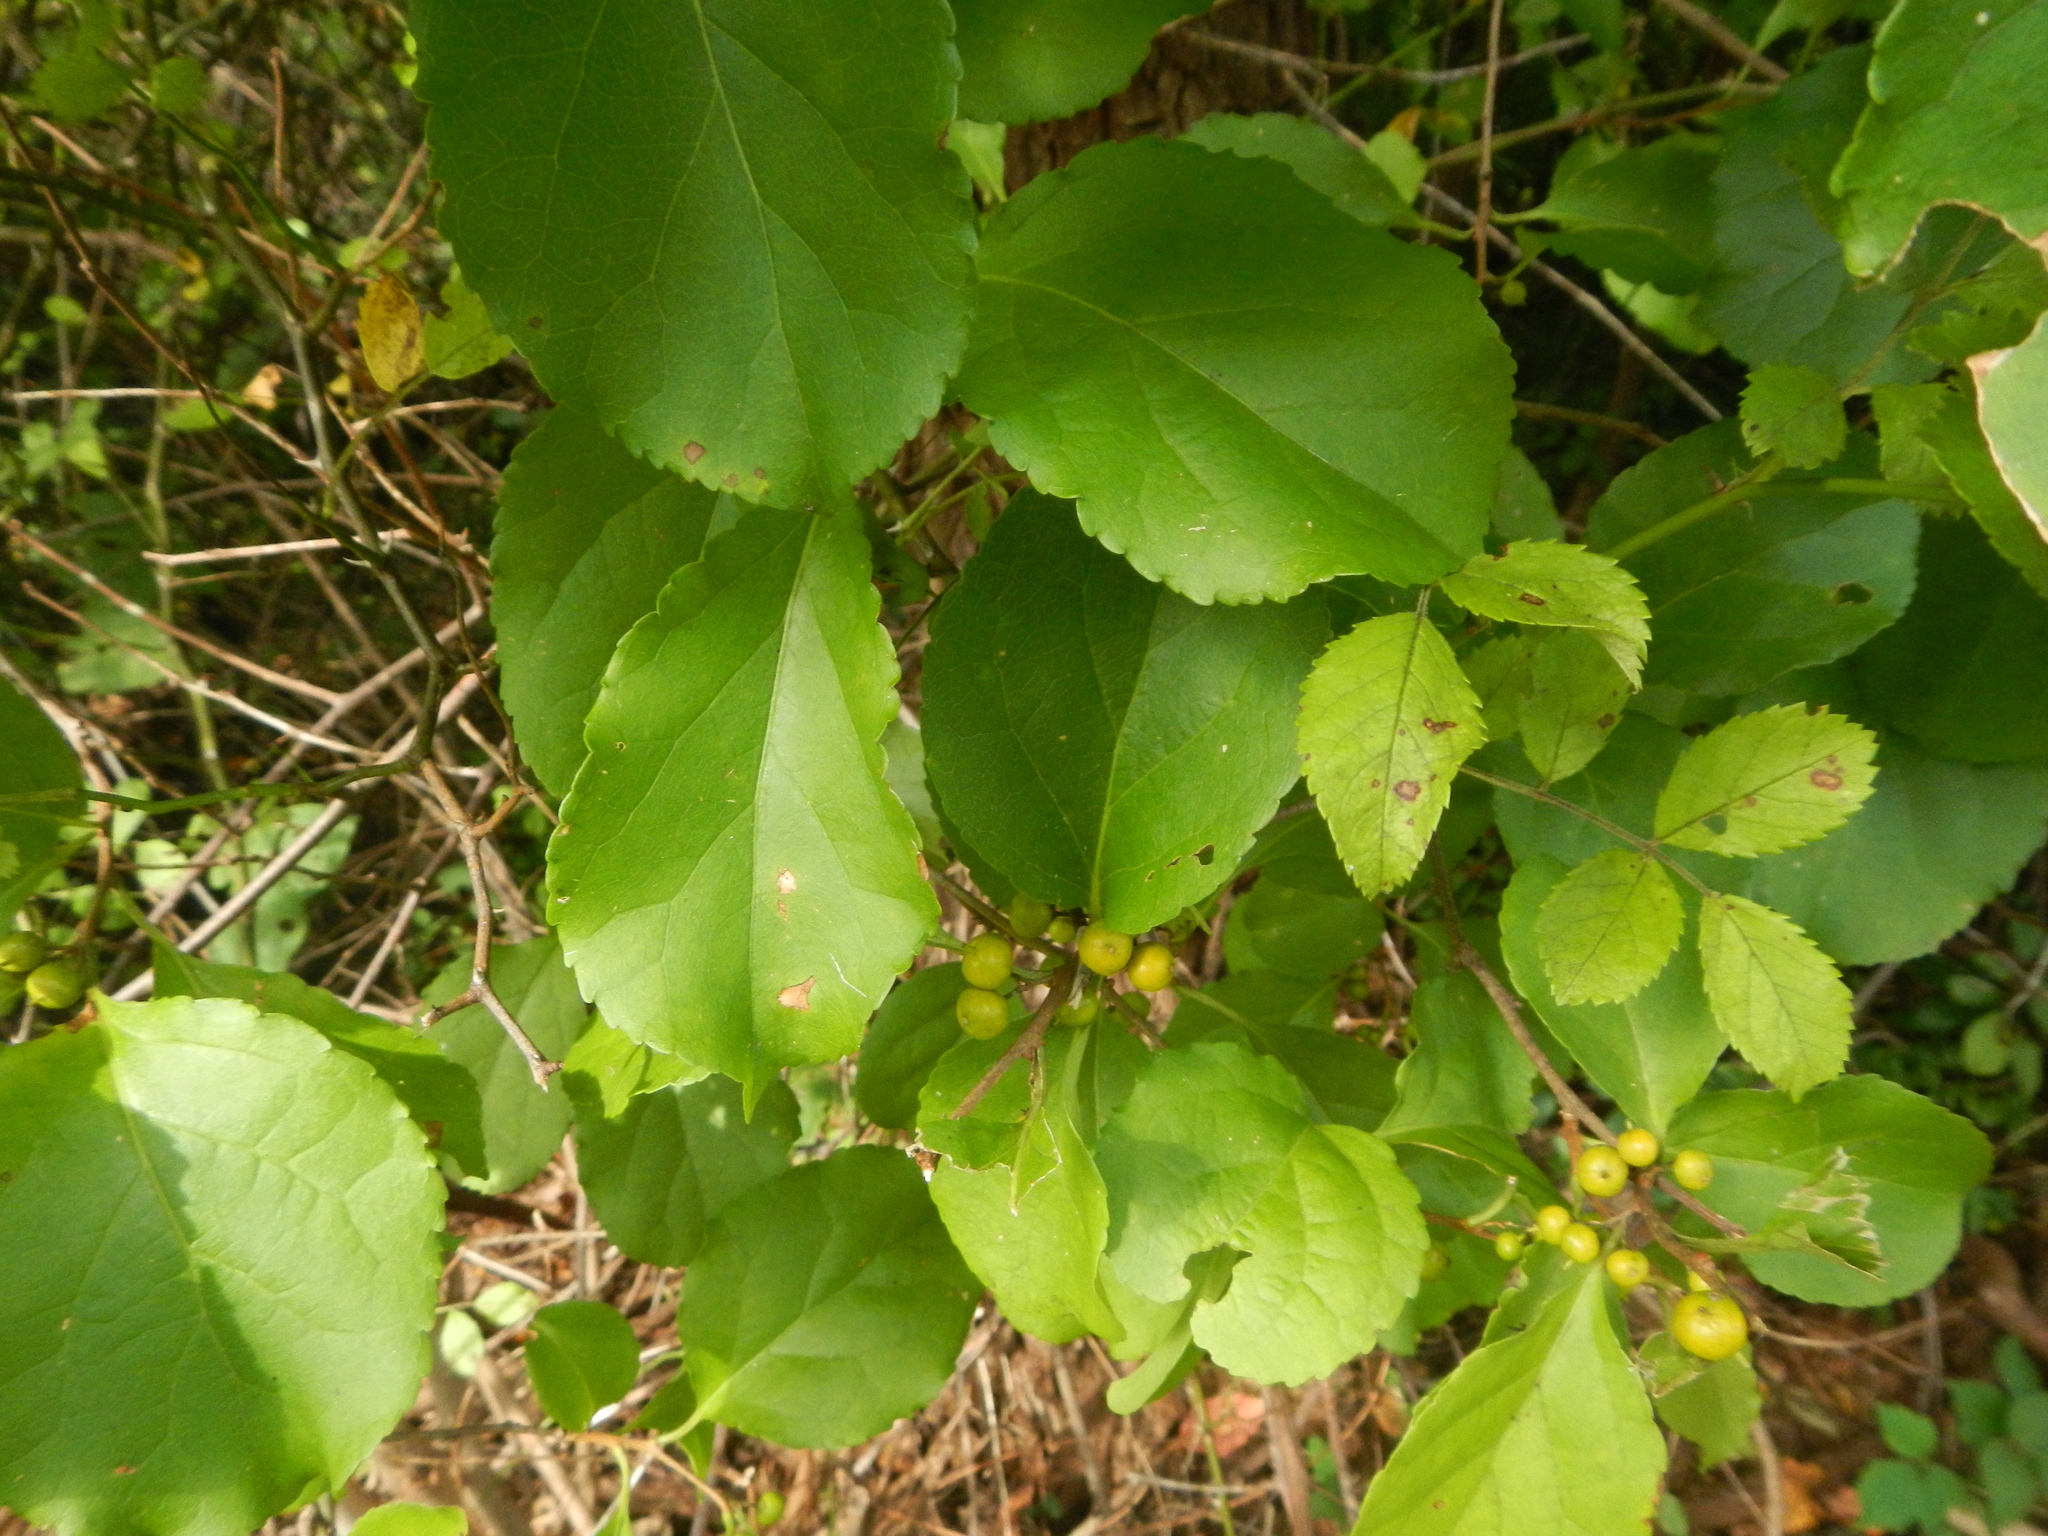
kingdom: Plantae
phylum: Tracheophyta
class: Magnoliopsida
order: Celastrales
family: Celastraceae
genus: Celastrus
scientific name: Celastrus orbiculatus
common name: Oriental bittersweet
